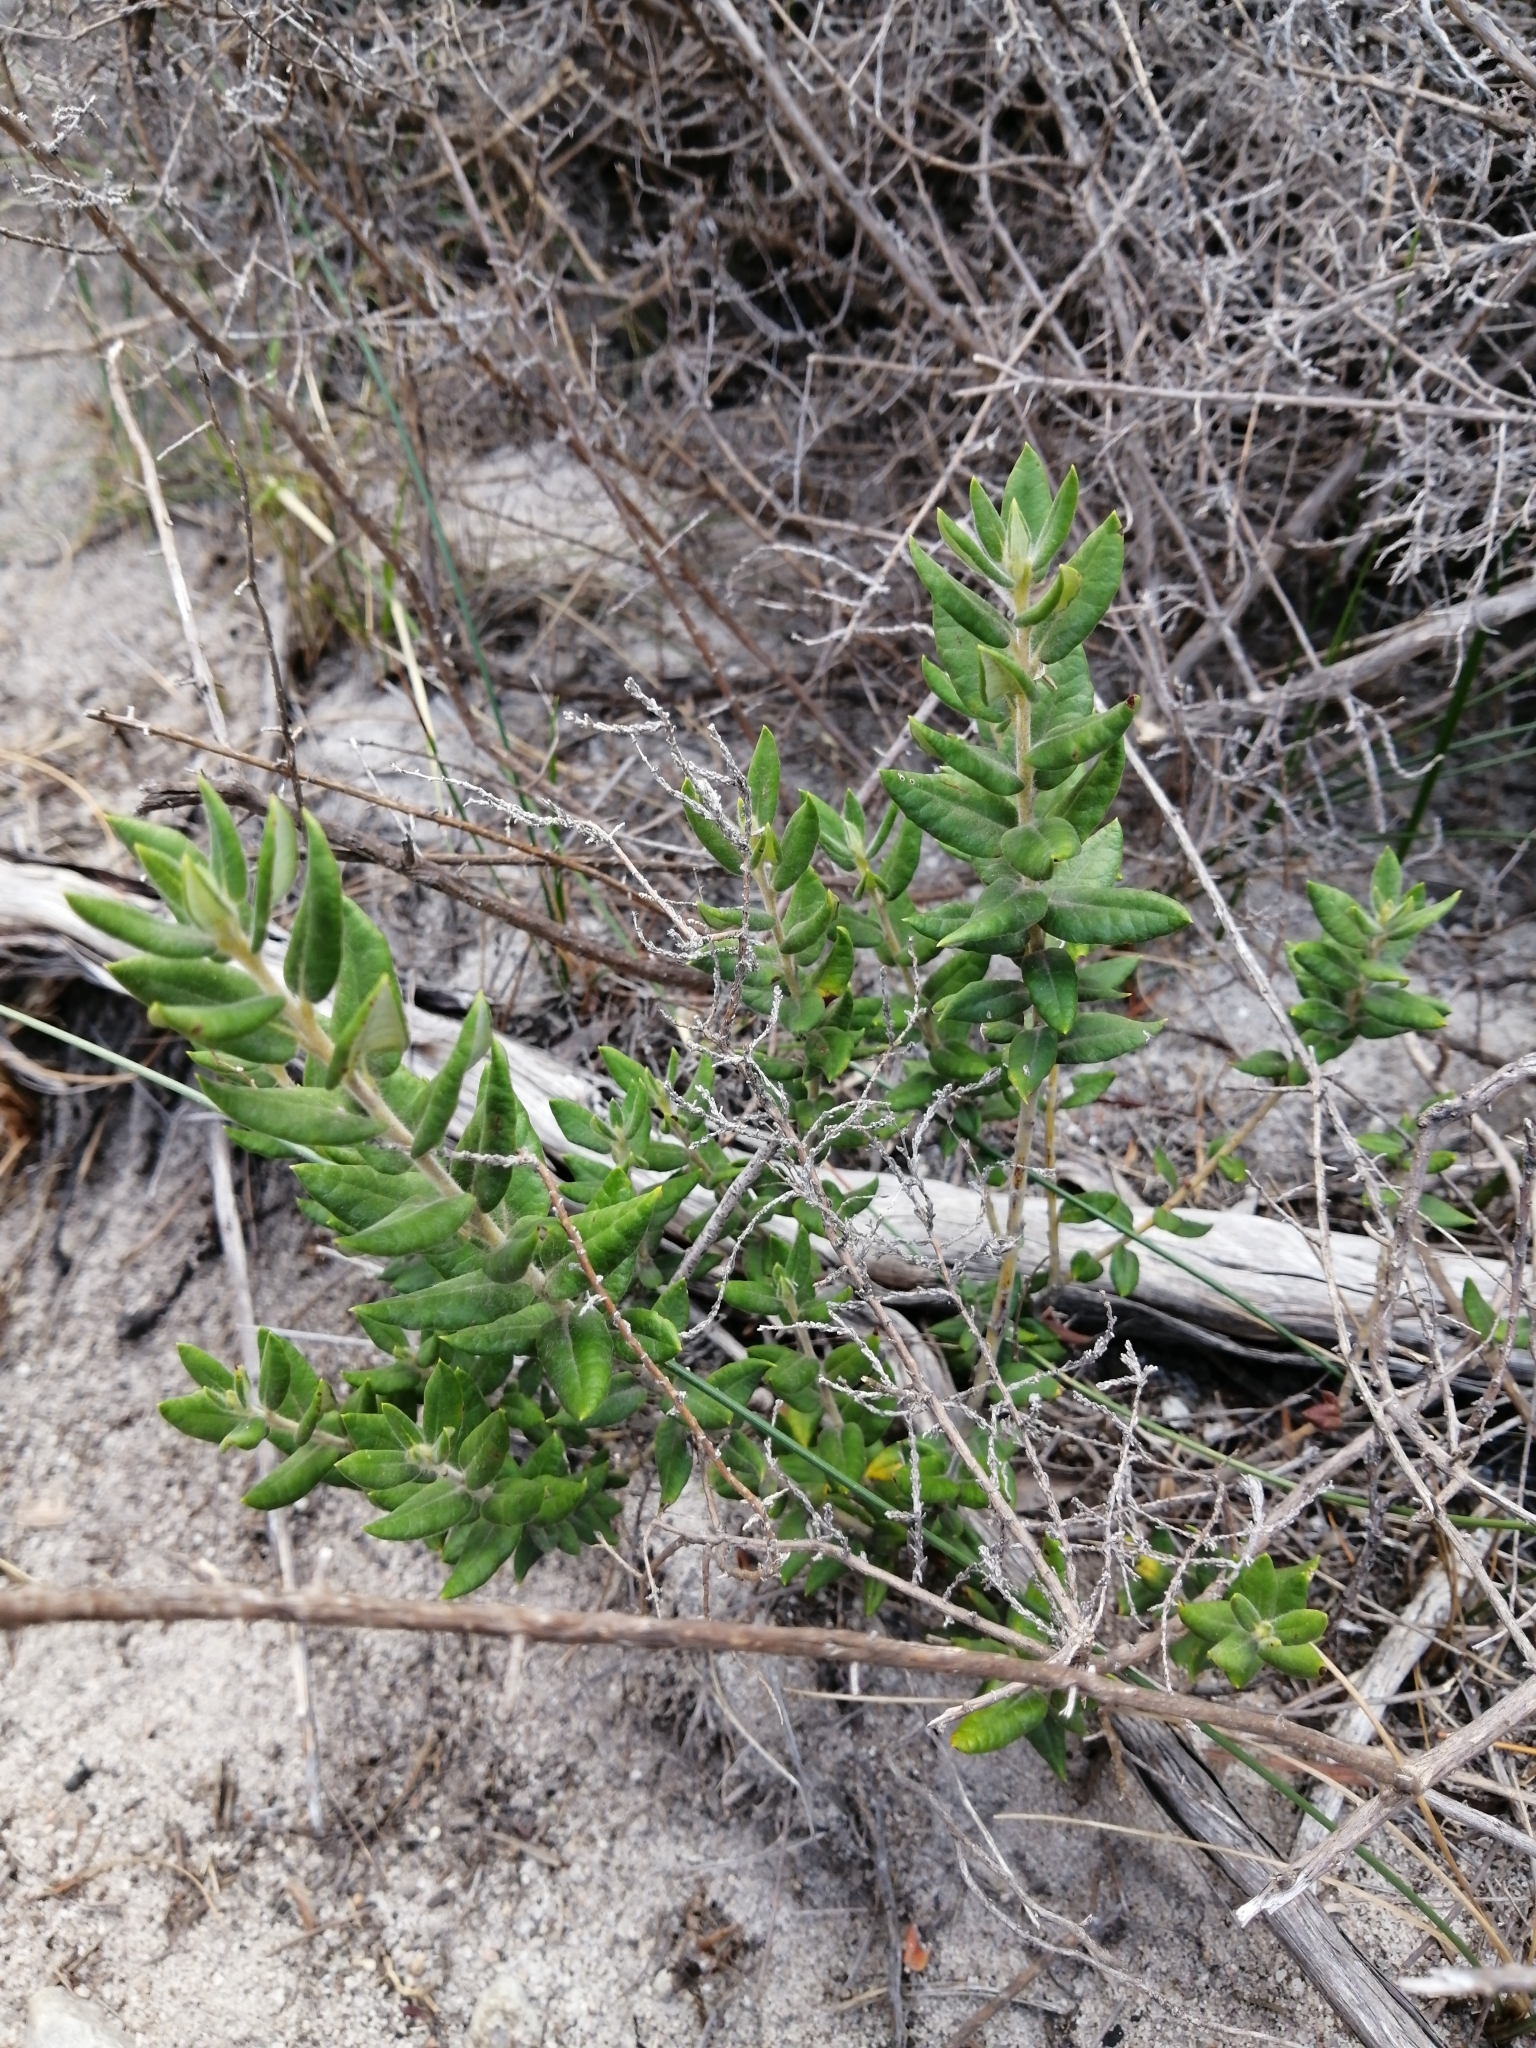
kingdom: Plantae
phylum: Tracheophyta
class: Magnoliopsida
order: Rosales
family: Rhamnaceae
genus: Phylica
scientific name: Phylica nervosa
